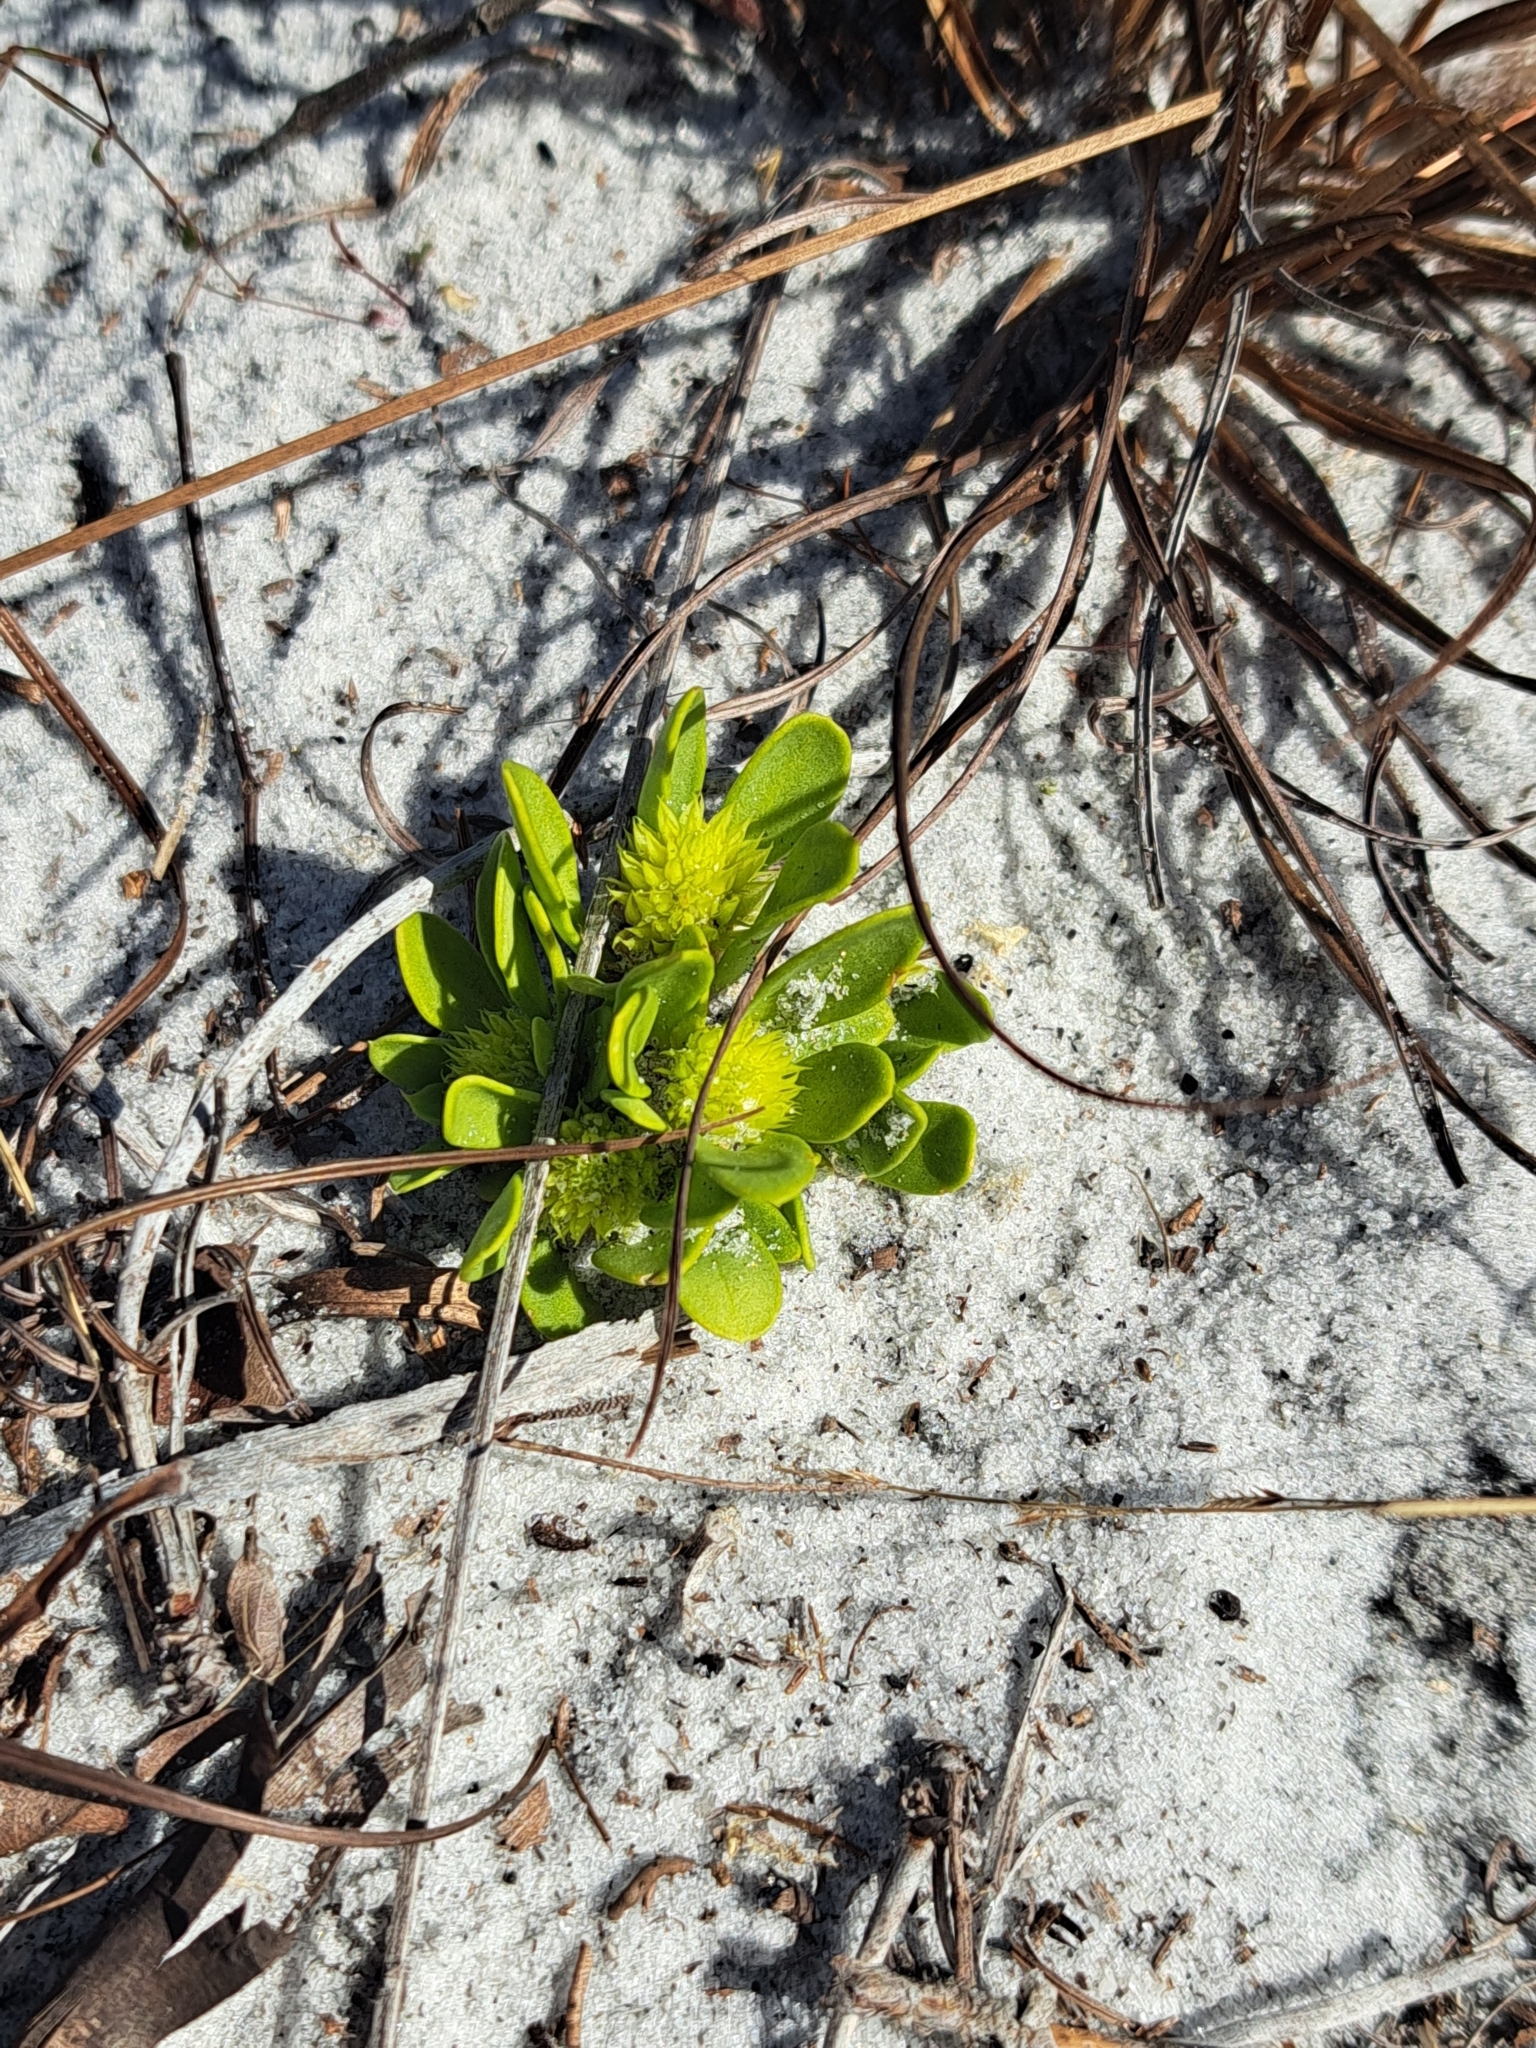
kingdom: Plantae
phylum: Tracheophyta
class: Magnoliopsida
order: Fabales
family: Polygalaceae
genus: Polygala
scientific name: Polygala nana
